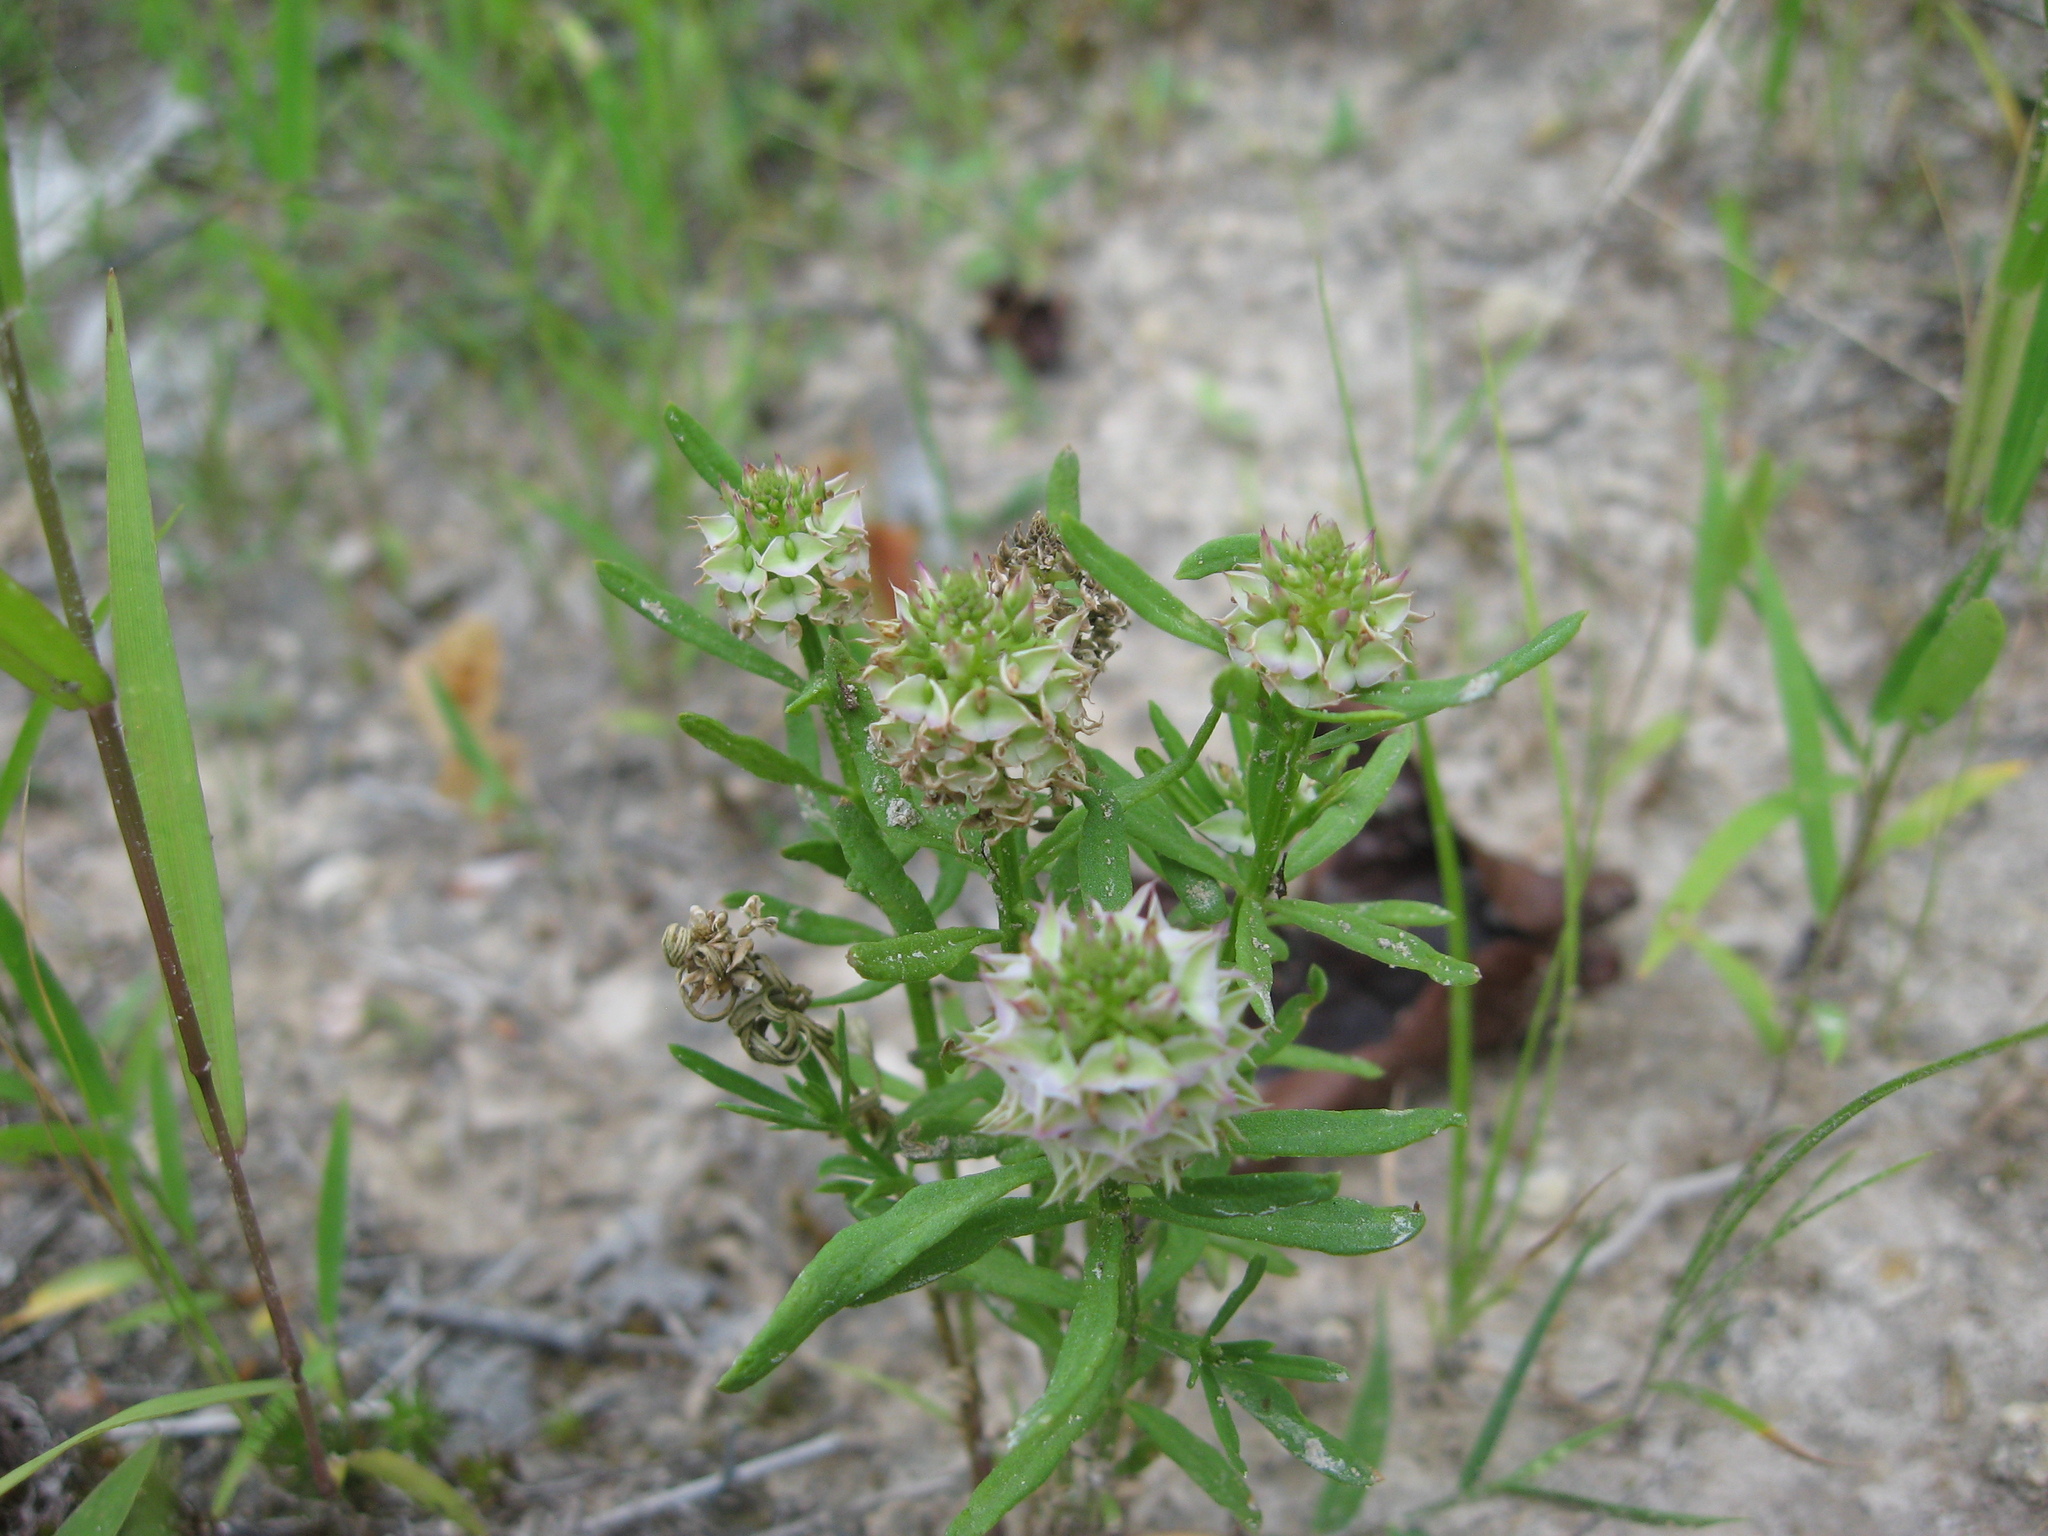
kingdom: Plantae
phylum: Tracheophyta
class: Magnoliopsida
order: Fabales
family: Polygalaceae
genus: Polygala
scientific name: Polygala cruciata
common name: Drumheads
